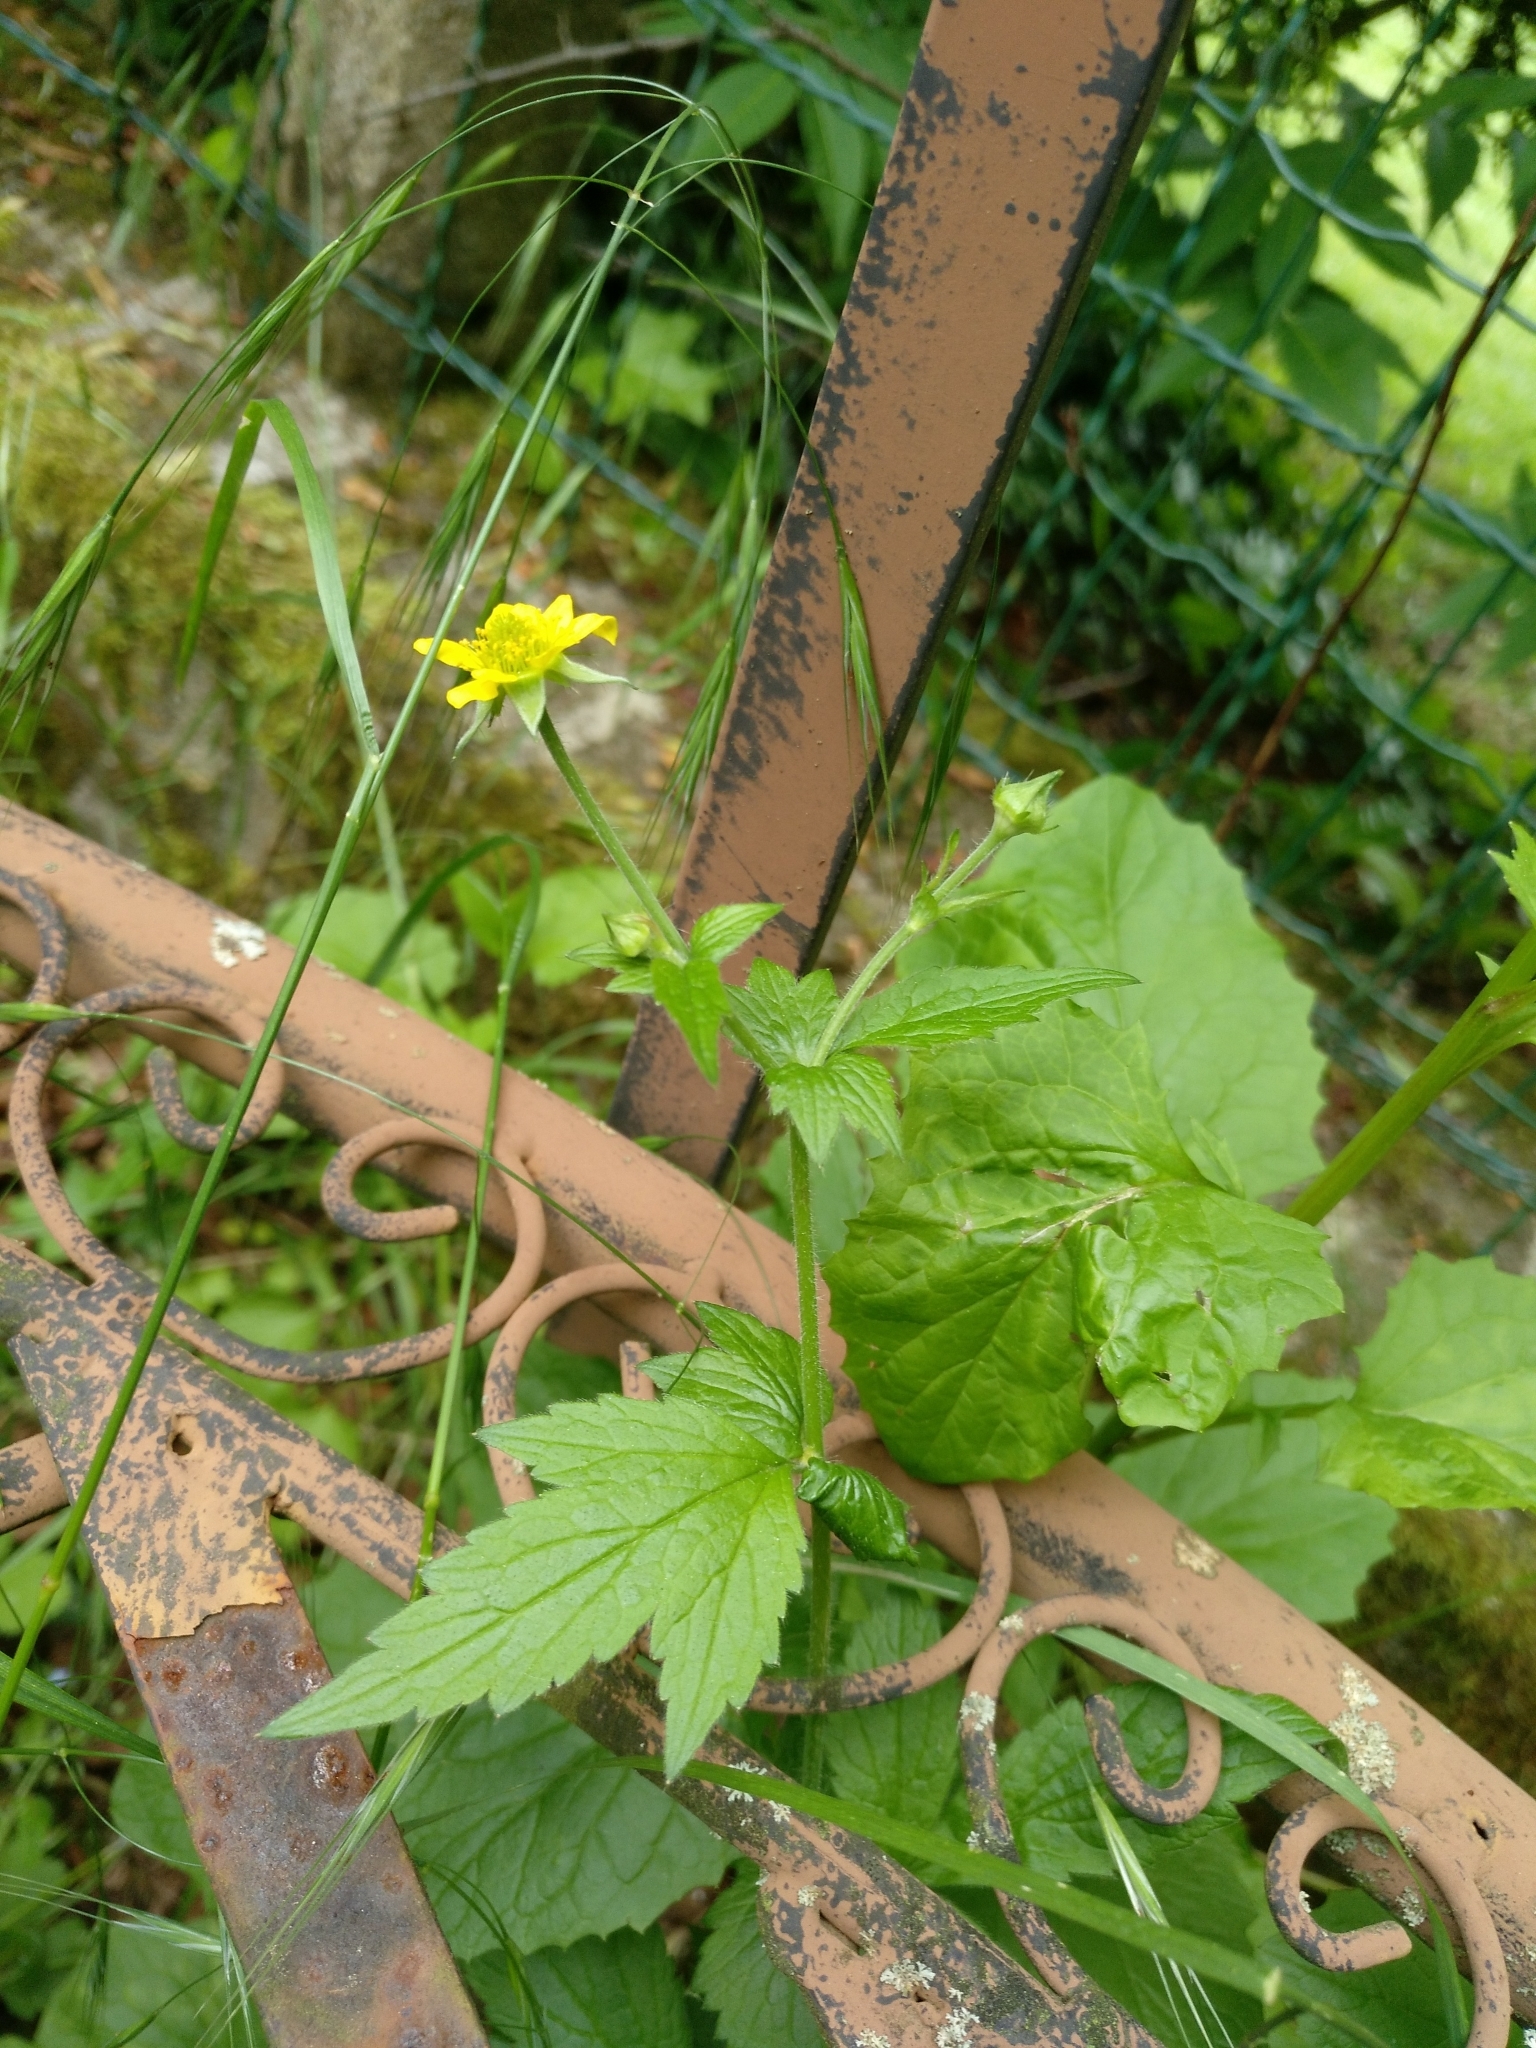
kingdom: Plantae
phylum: Tracheophyta
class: Magnoliopsida
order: Rosales
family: Rosaceae
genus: Geum
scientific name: Geum urbanum
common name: Wood avens
